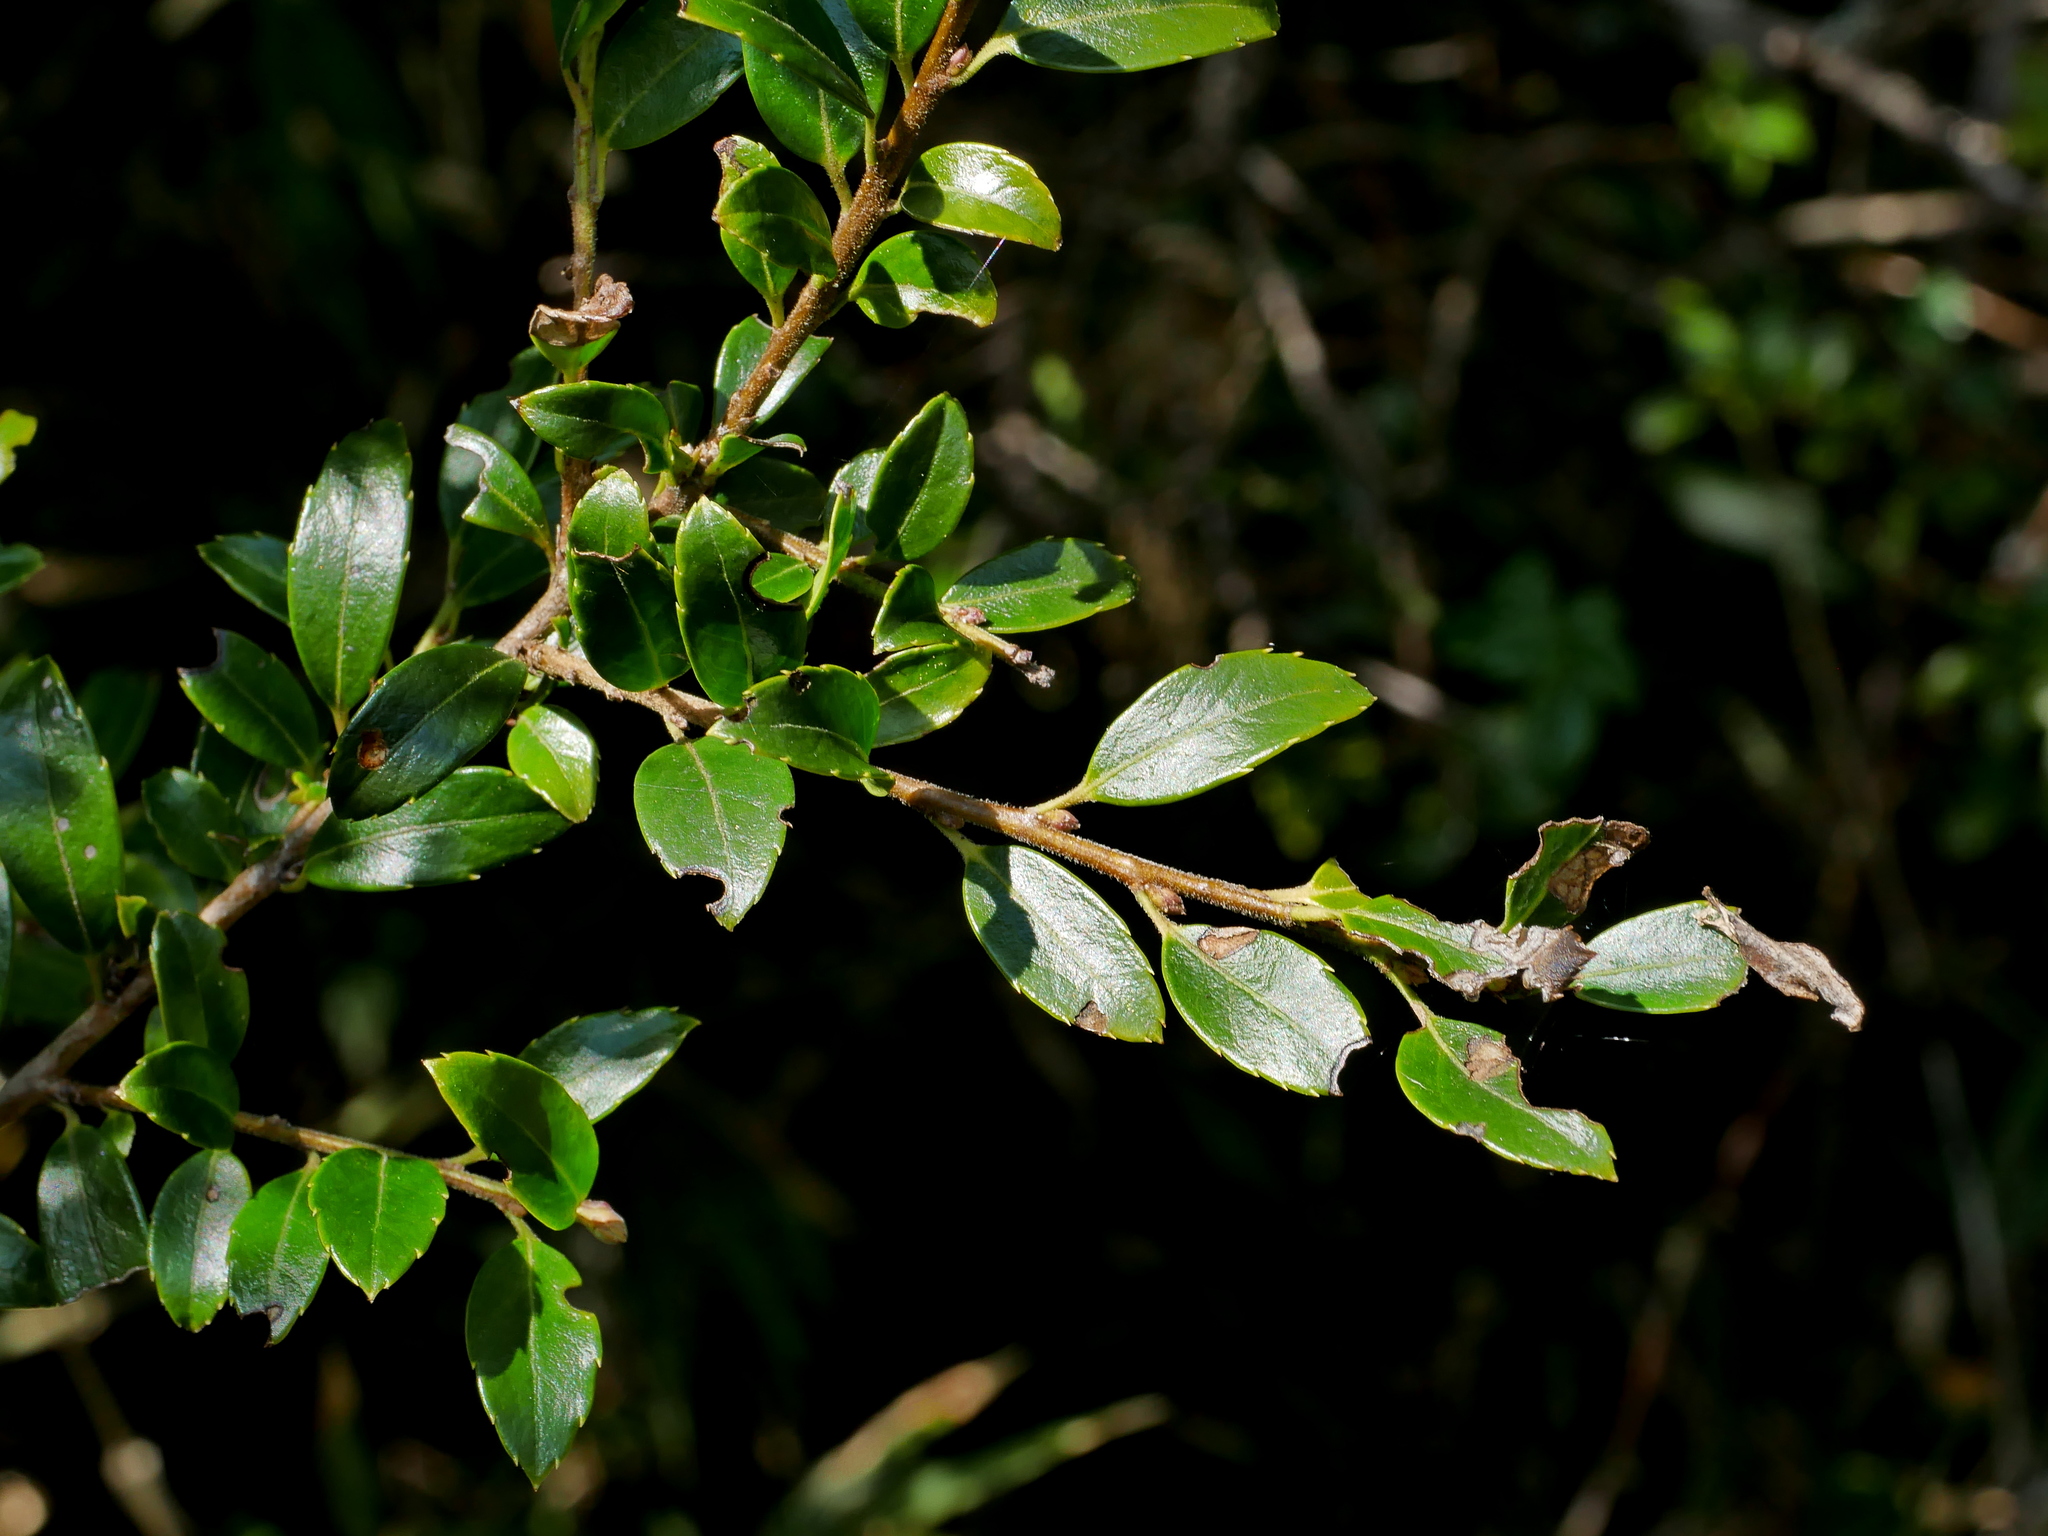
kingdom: Plantae
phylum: Tracheophyta
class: Magnoliopsida
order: Aquifoliales
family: Aquifoliaceae
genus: Ilex
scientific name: Ilex yunnanensis
